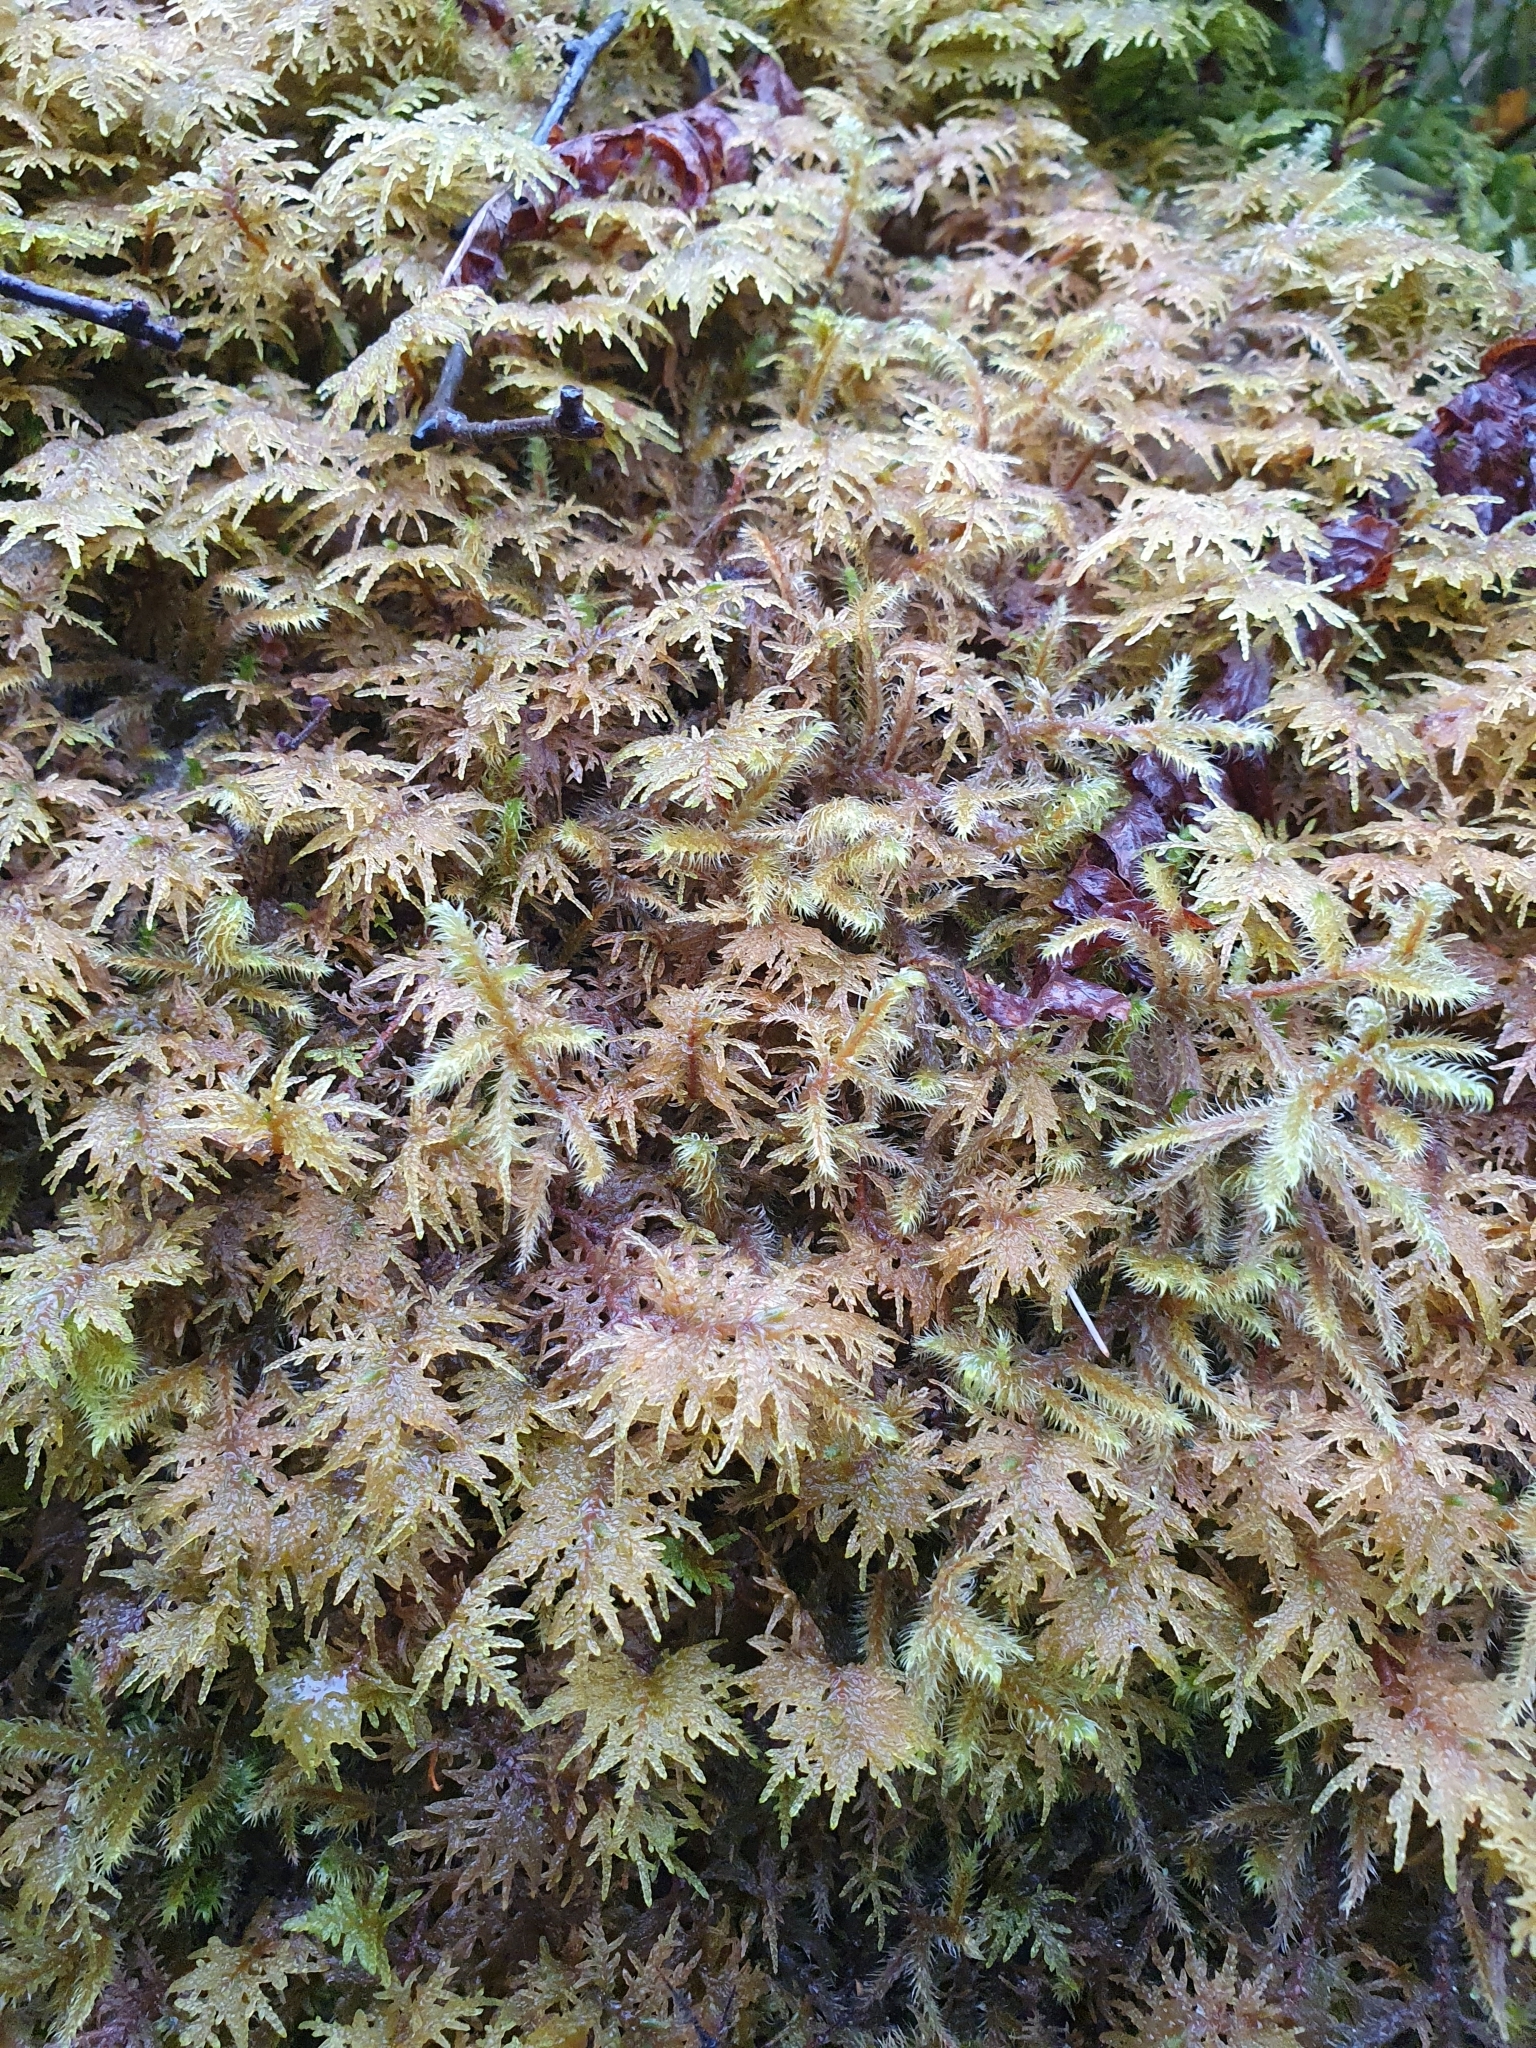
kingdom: Plantae
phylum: Bryophyta
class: Bryopsida
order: Hypnales
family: Hylocomiaceae
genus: Hylocomium
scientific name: Hylocomium splendens
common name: Stairstep moss
